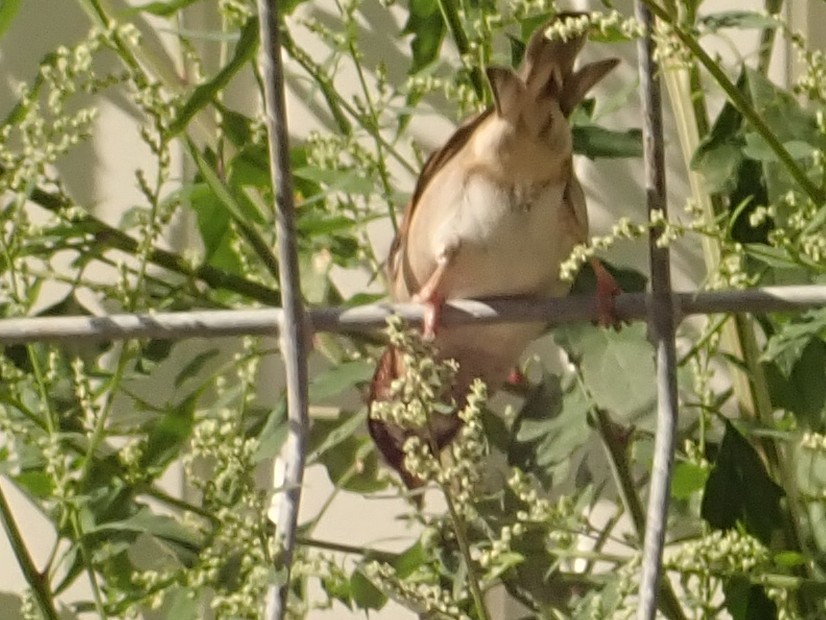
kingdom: Animalia
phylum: Chordata
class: Aves
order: Passeriformes
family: Passeridae
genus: Passer
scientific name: Passer domesticus
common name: House sparrow
